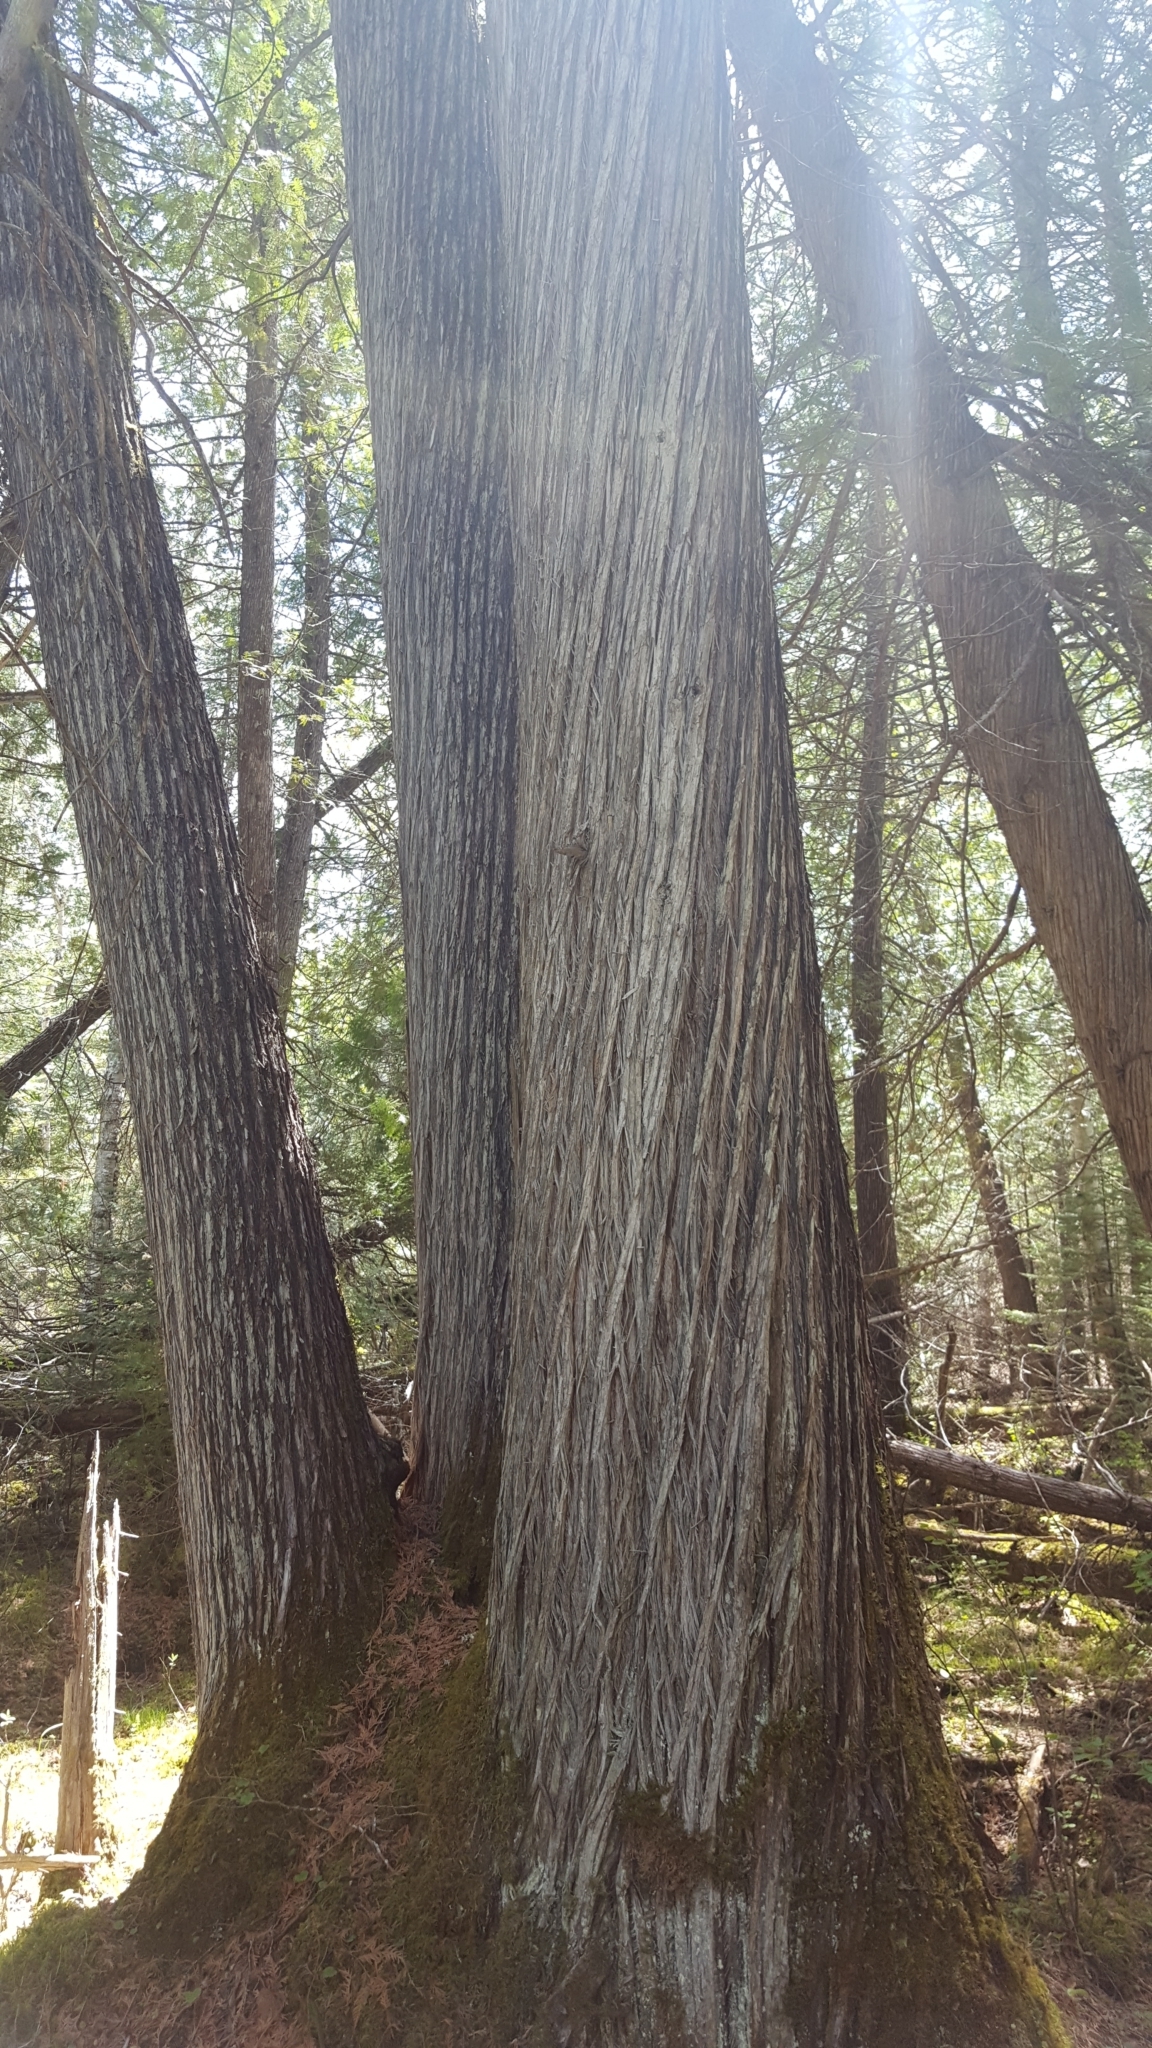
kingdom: Plantae
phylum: Tracheophyta
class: Pinopsida
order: Pinales
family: Cupressaceae
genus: Thuja
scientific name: Thuja occidentalis
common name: Northern white-cedar
